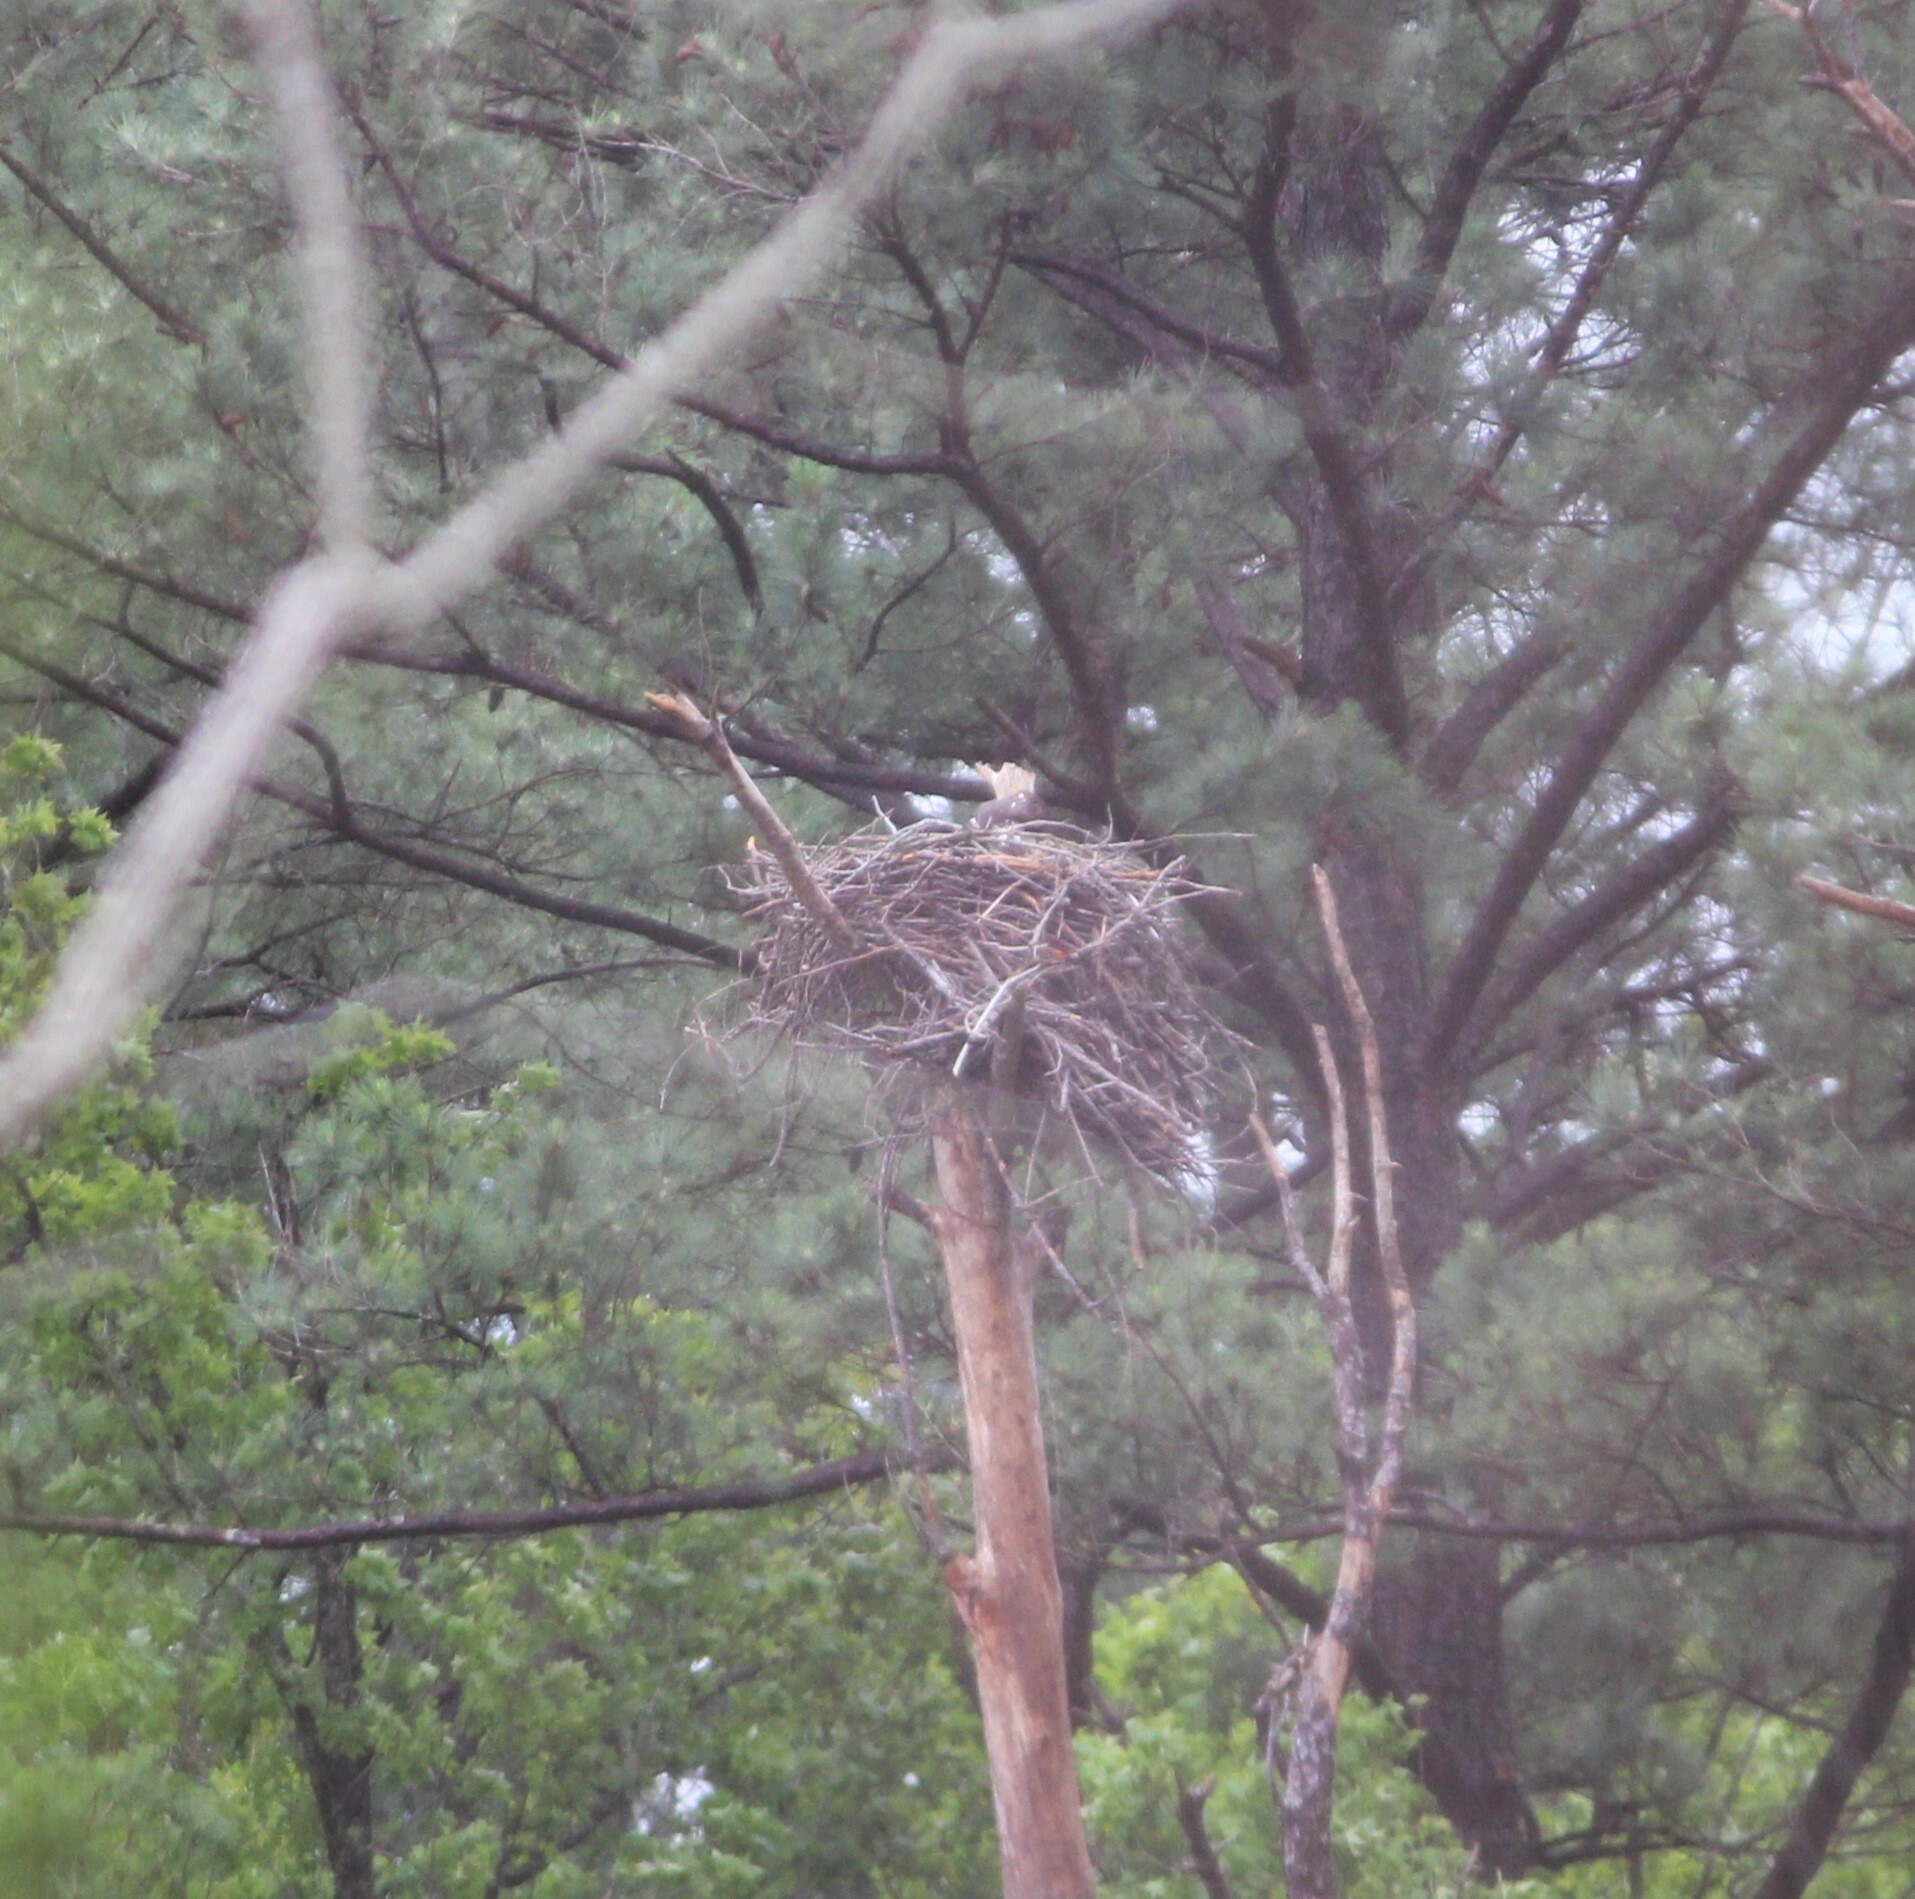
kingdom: Animalia
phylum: Chordata
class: Aves
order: Accipitriformes
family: Pandionidae
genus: Pandion
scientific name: Pandion haliaetus
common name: Osprey
